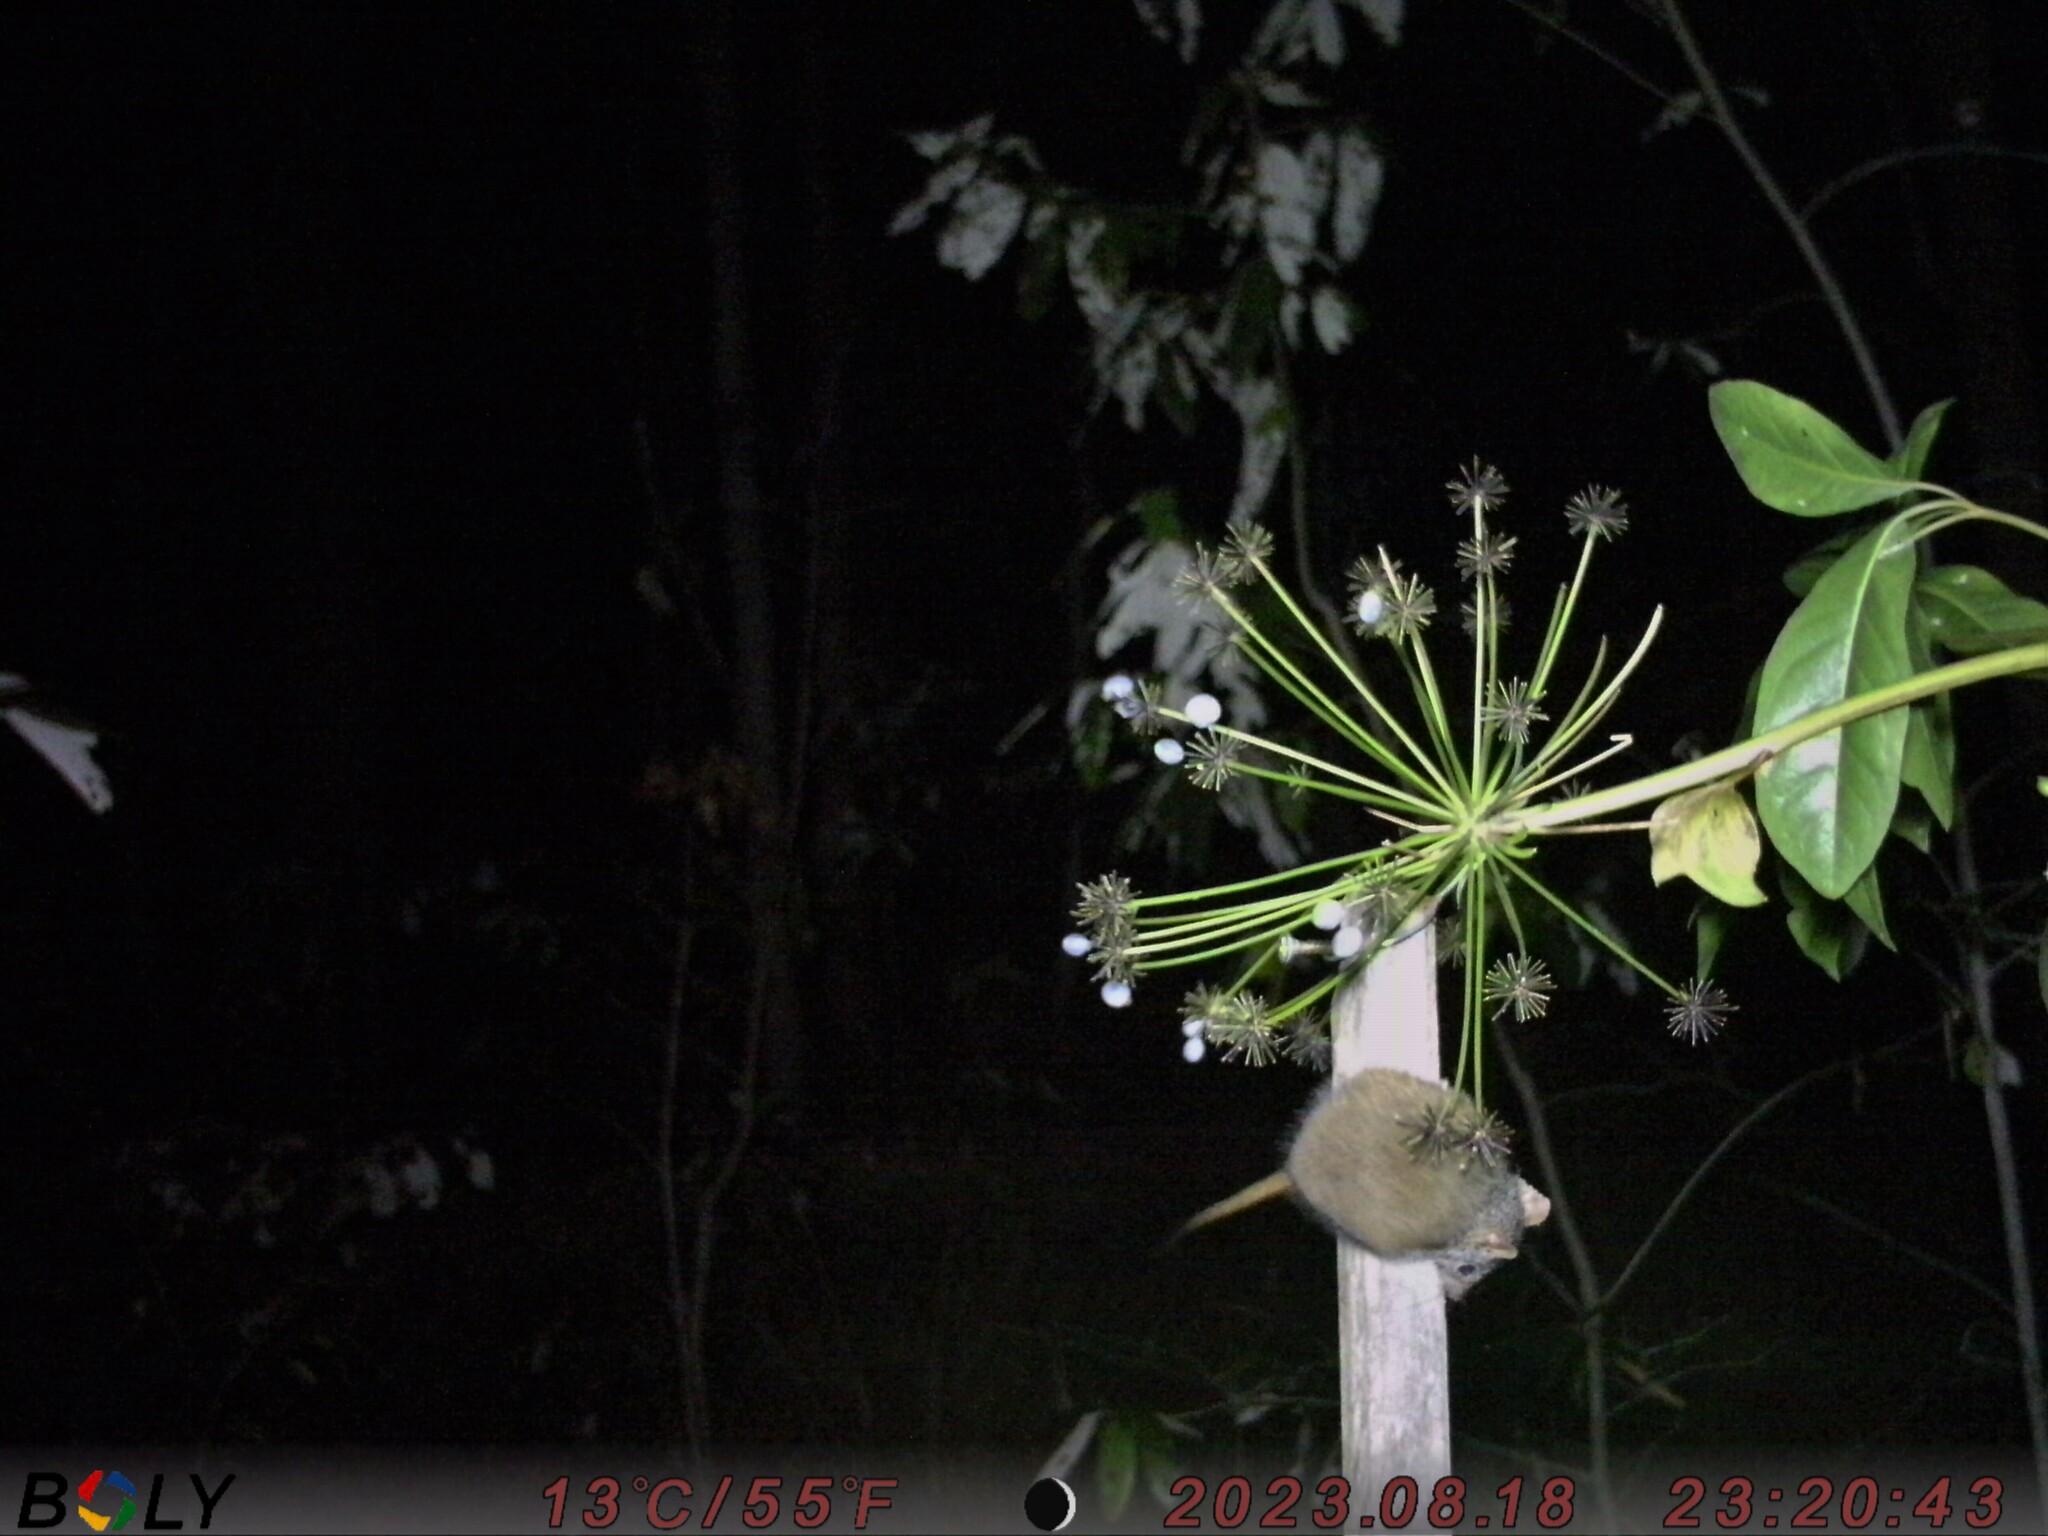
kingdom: Animalia
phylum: Chordata
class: Mammalia
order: Dasyuromorphia
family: Dasyuridae
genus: Antechinus
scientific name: Antechinus flavipes
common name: Yellow-footed antechinus
